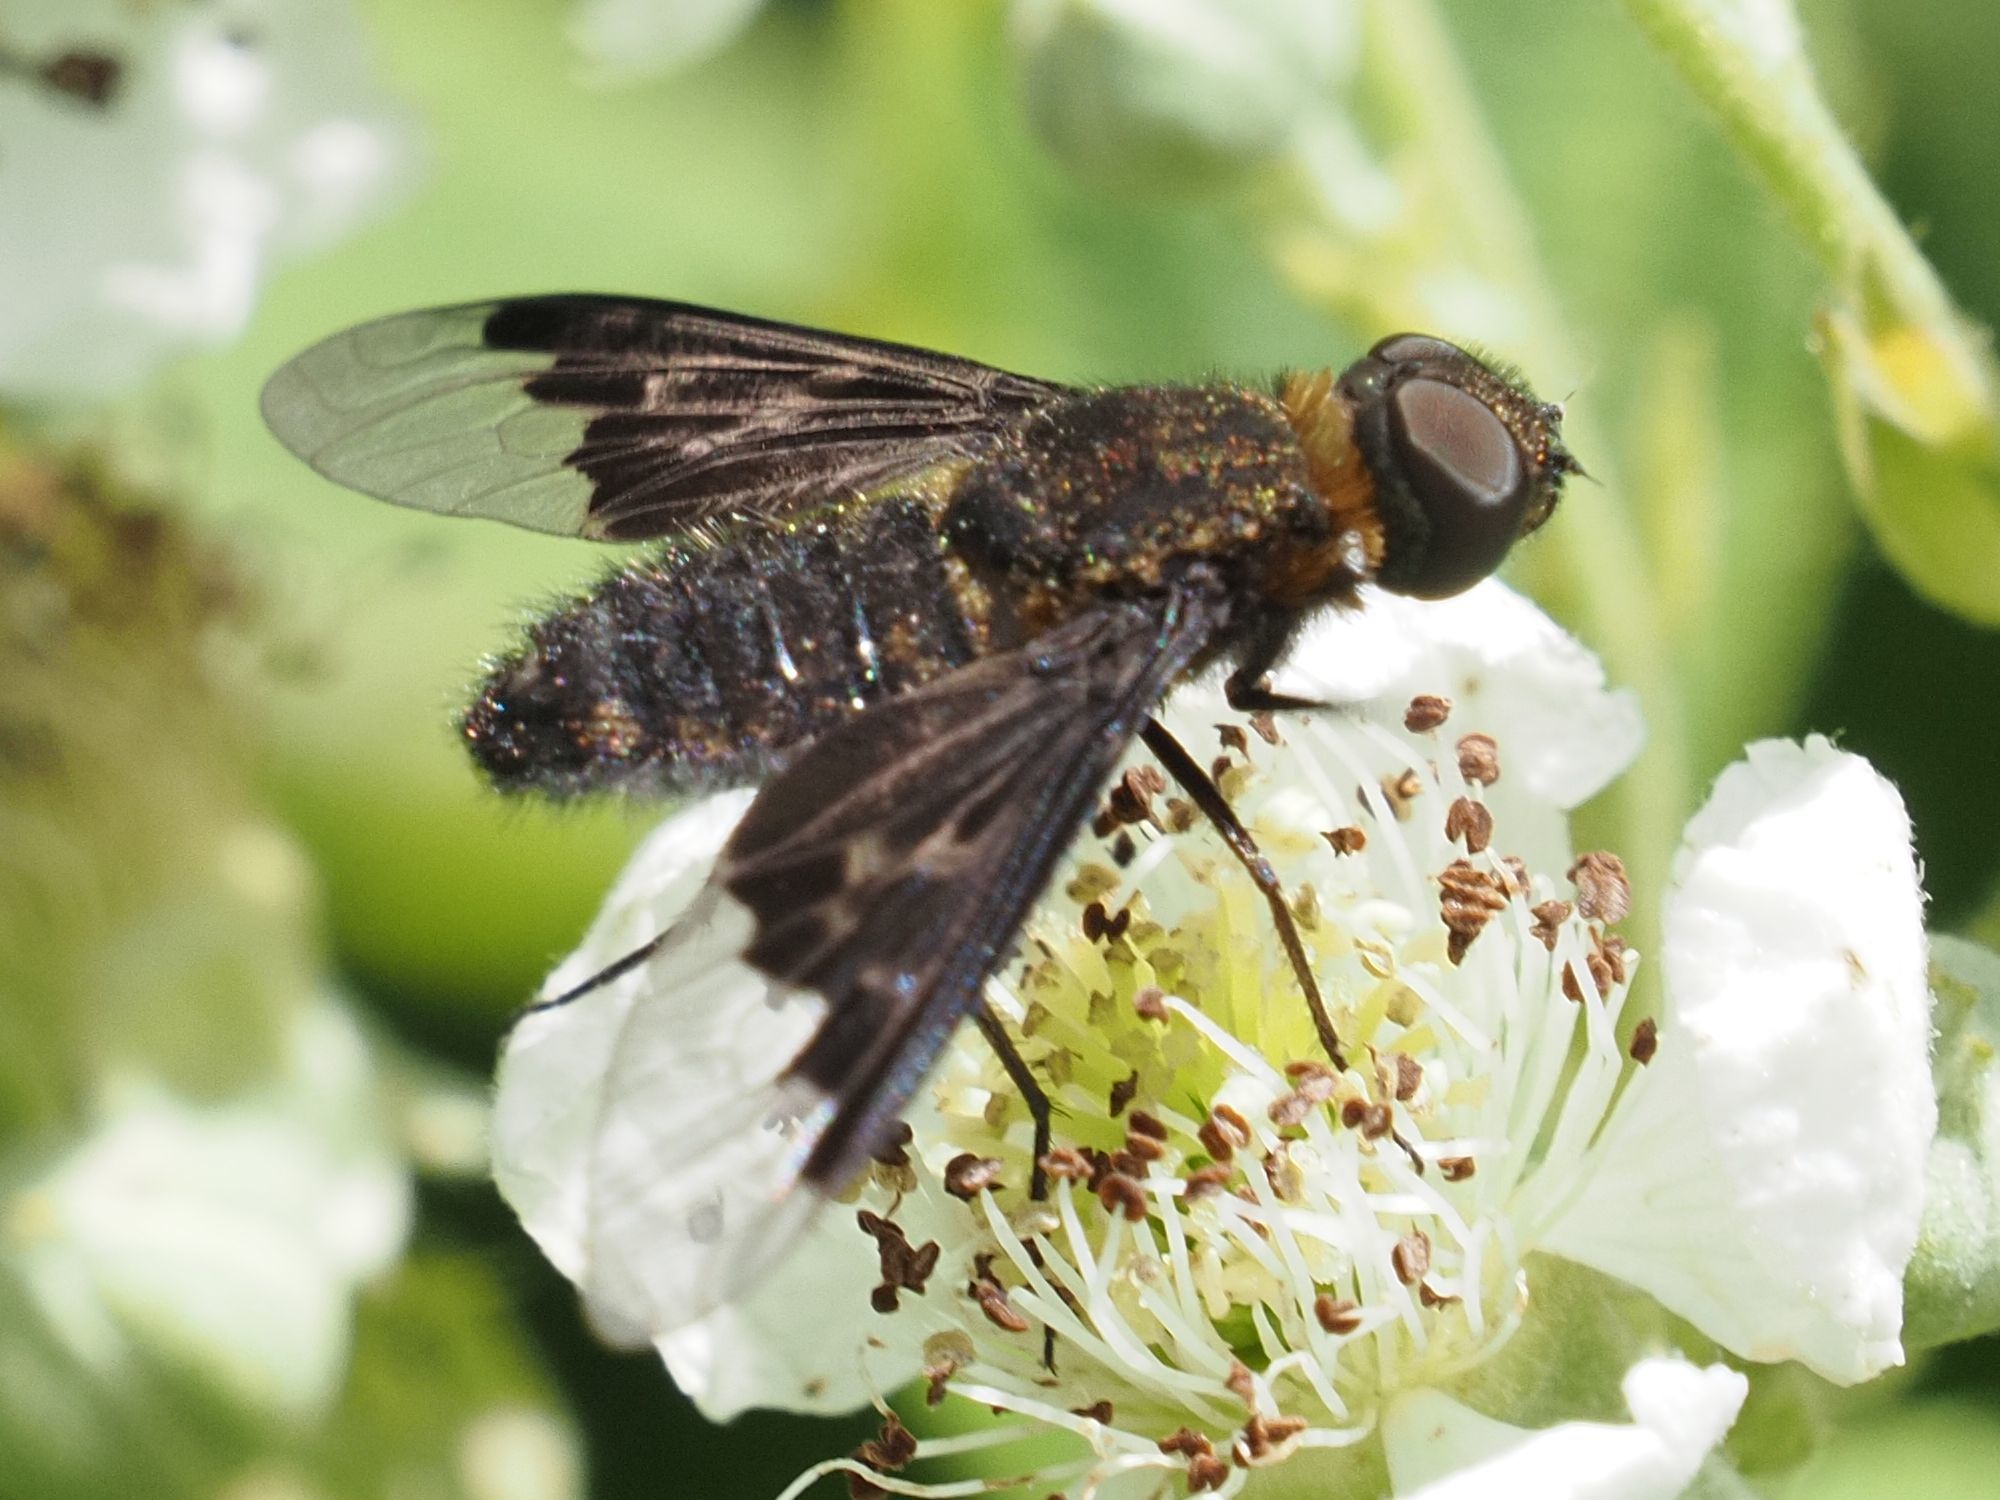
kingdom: Animalia
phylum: Arthropoda
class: Insecta
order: Diptera
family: Bombyliidae
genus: Hemipenthes
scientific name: Hemipenthes morio
